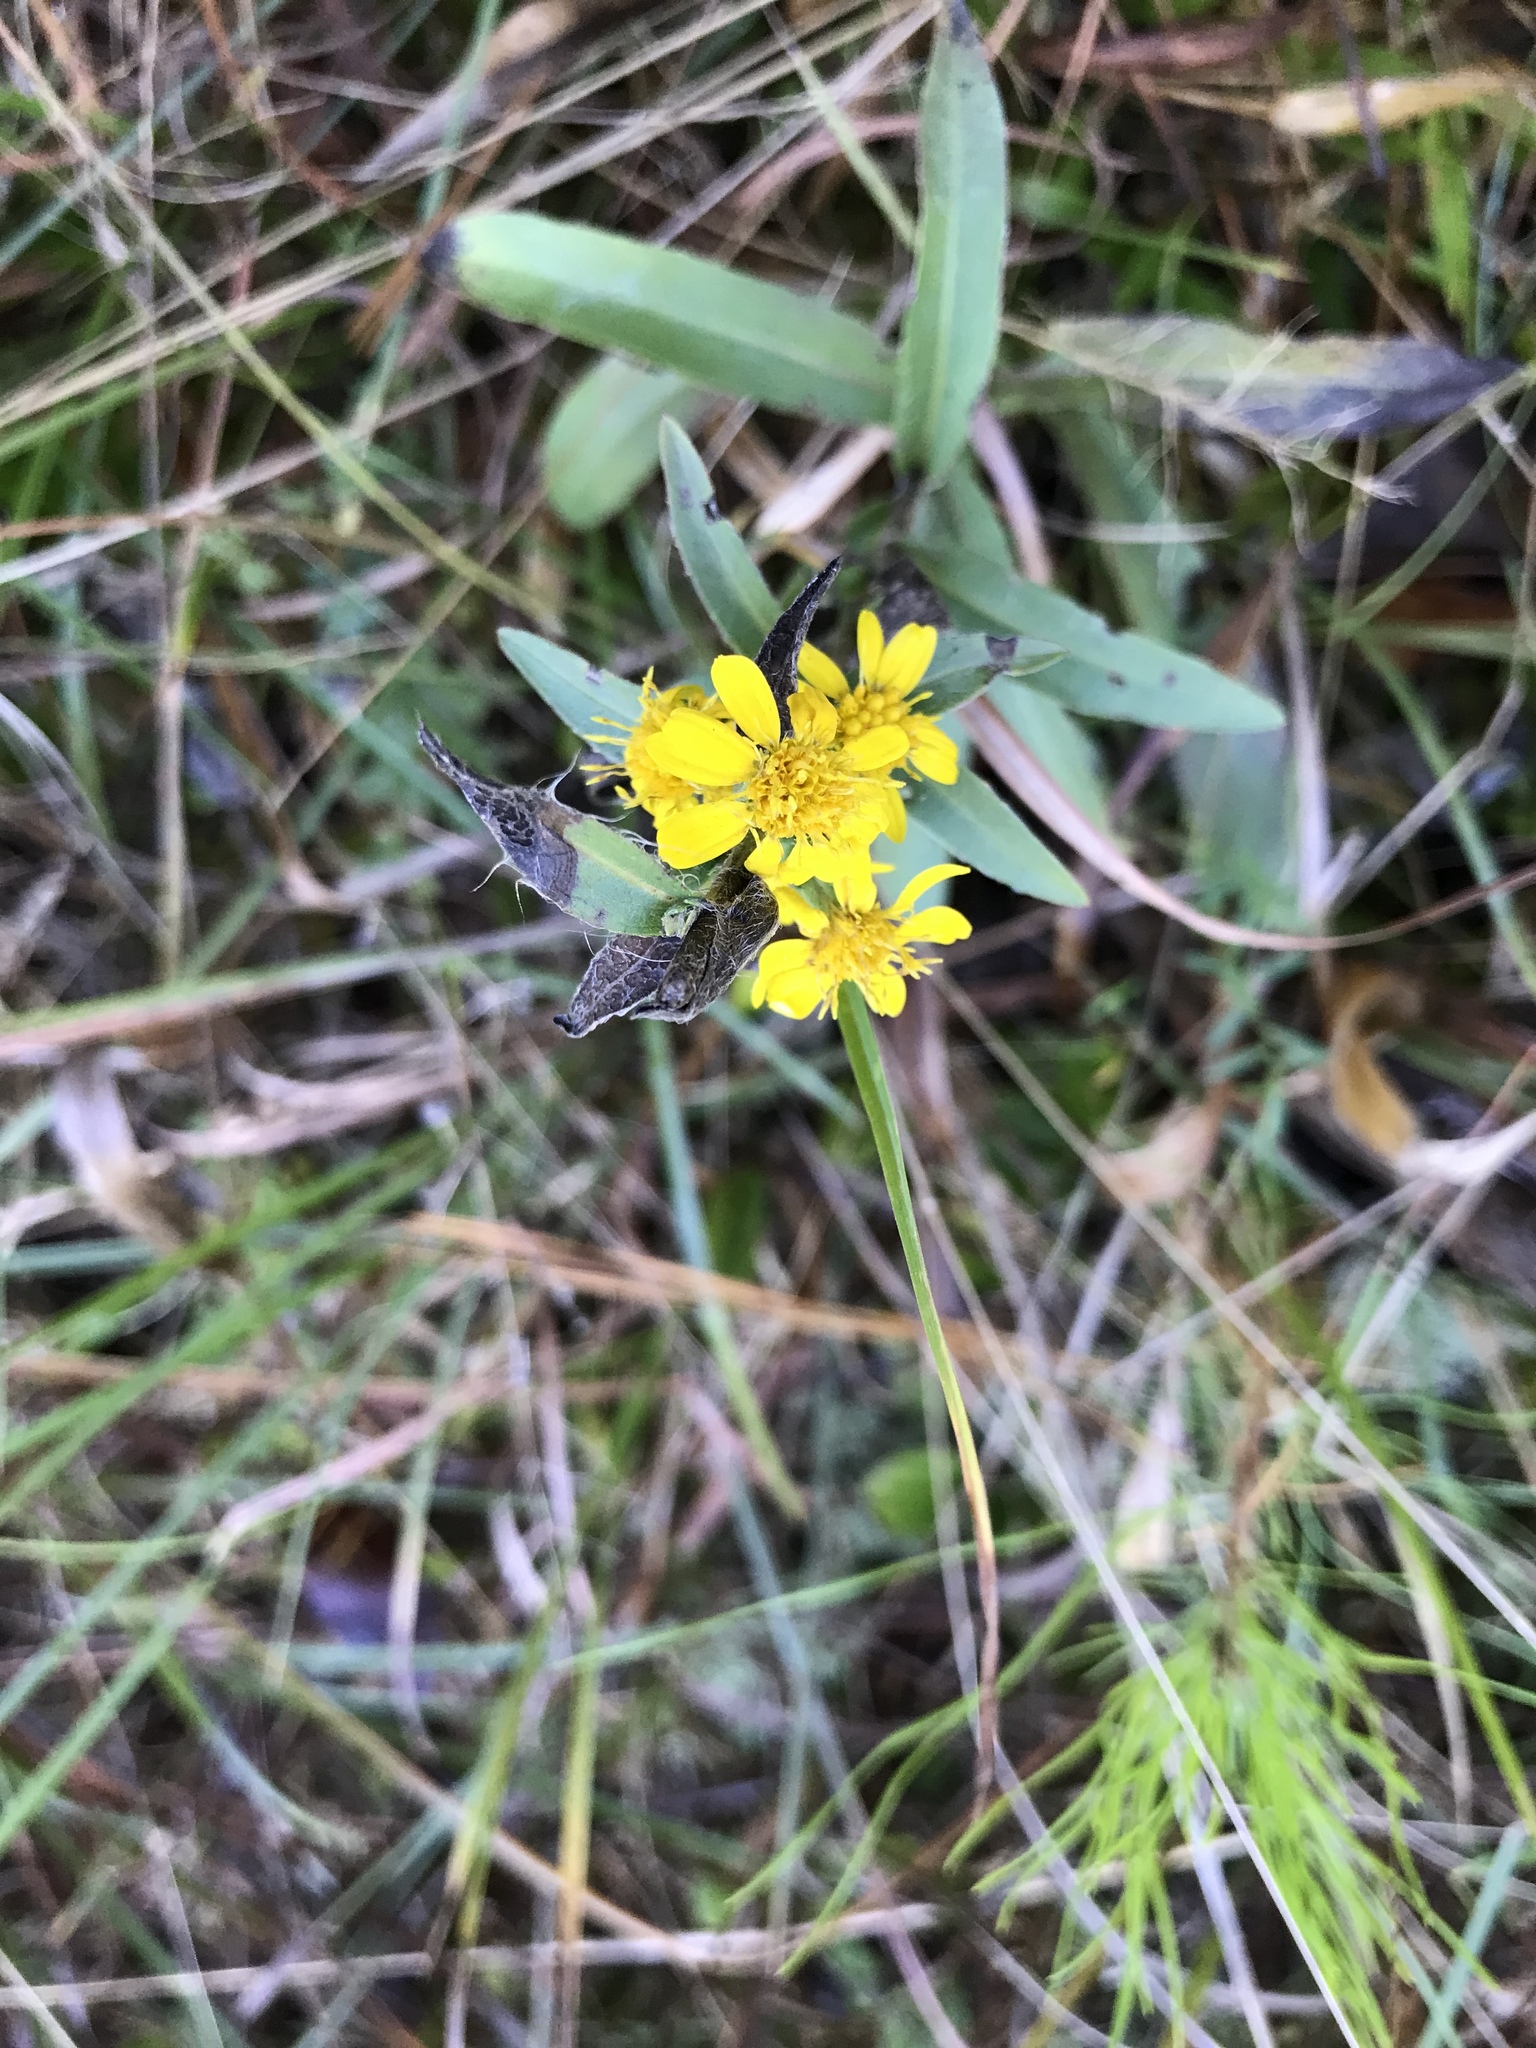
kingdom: Plantae
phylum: Tracheophyta
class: Magnoliopsida
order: Asterales
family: Asteraceae
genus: Chrysopsis
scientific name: Chrysopsis mariana
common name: Maryland golden-aster
